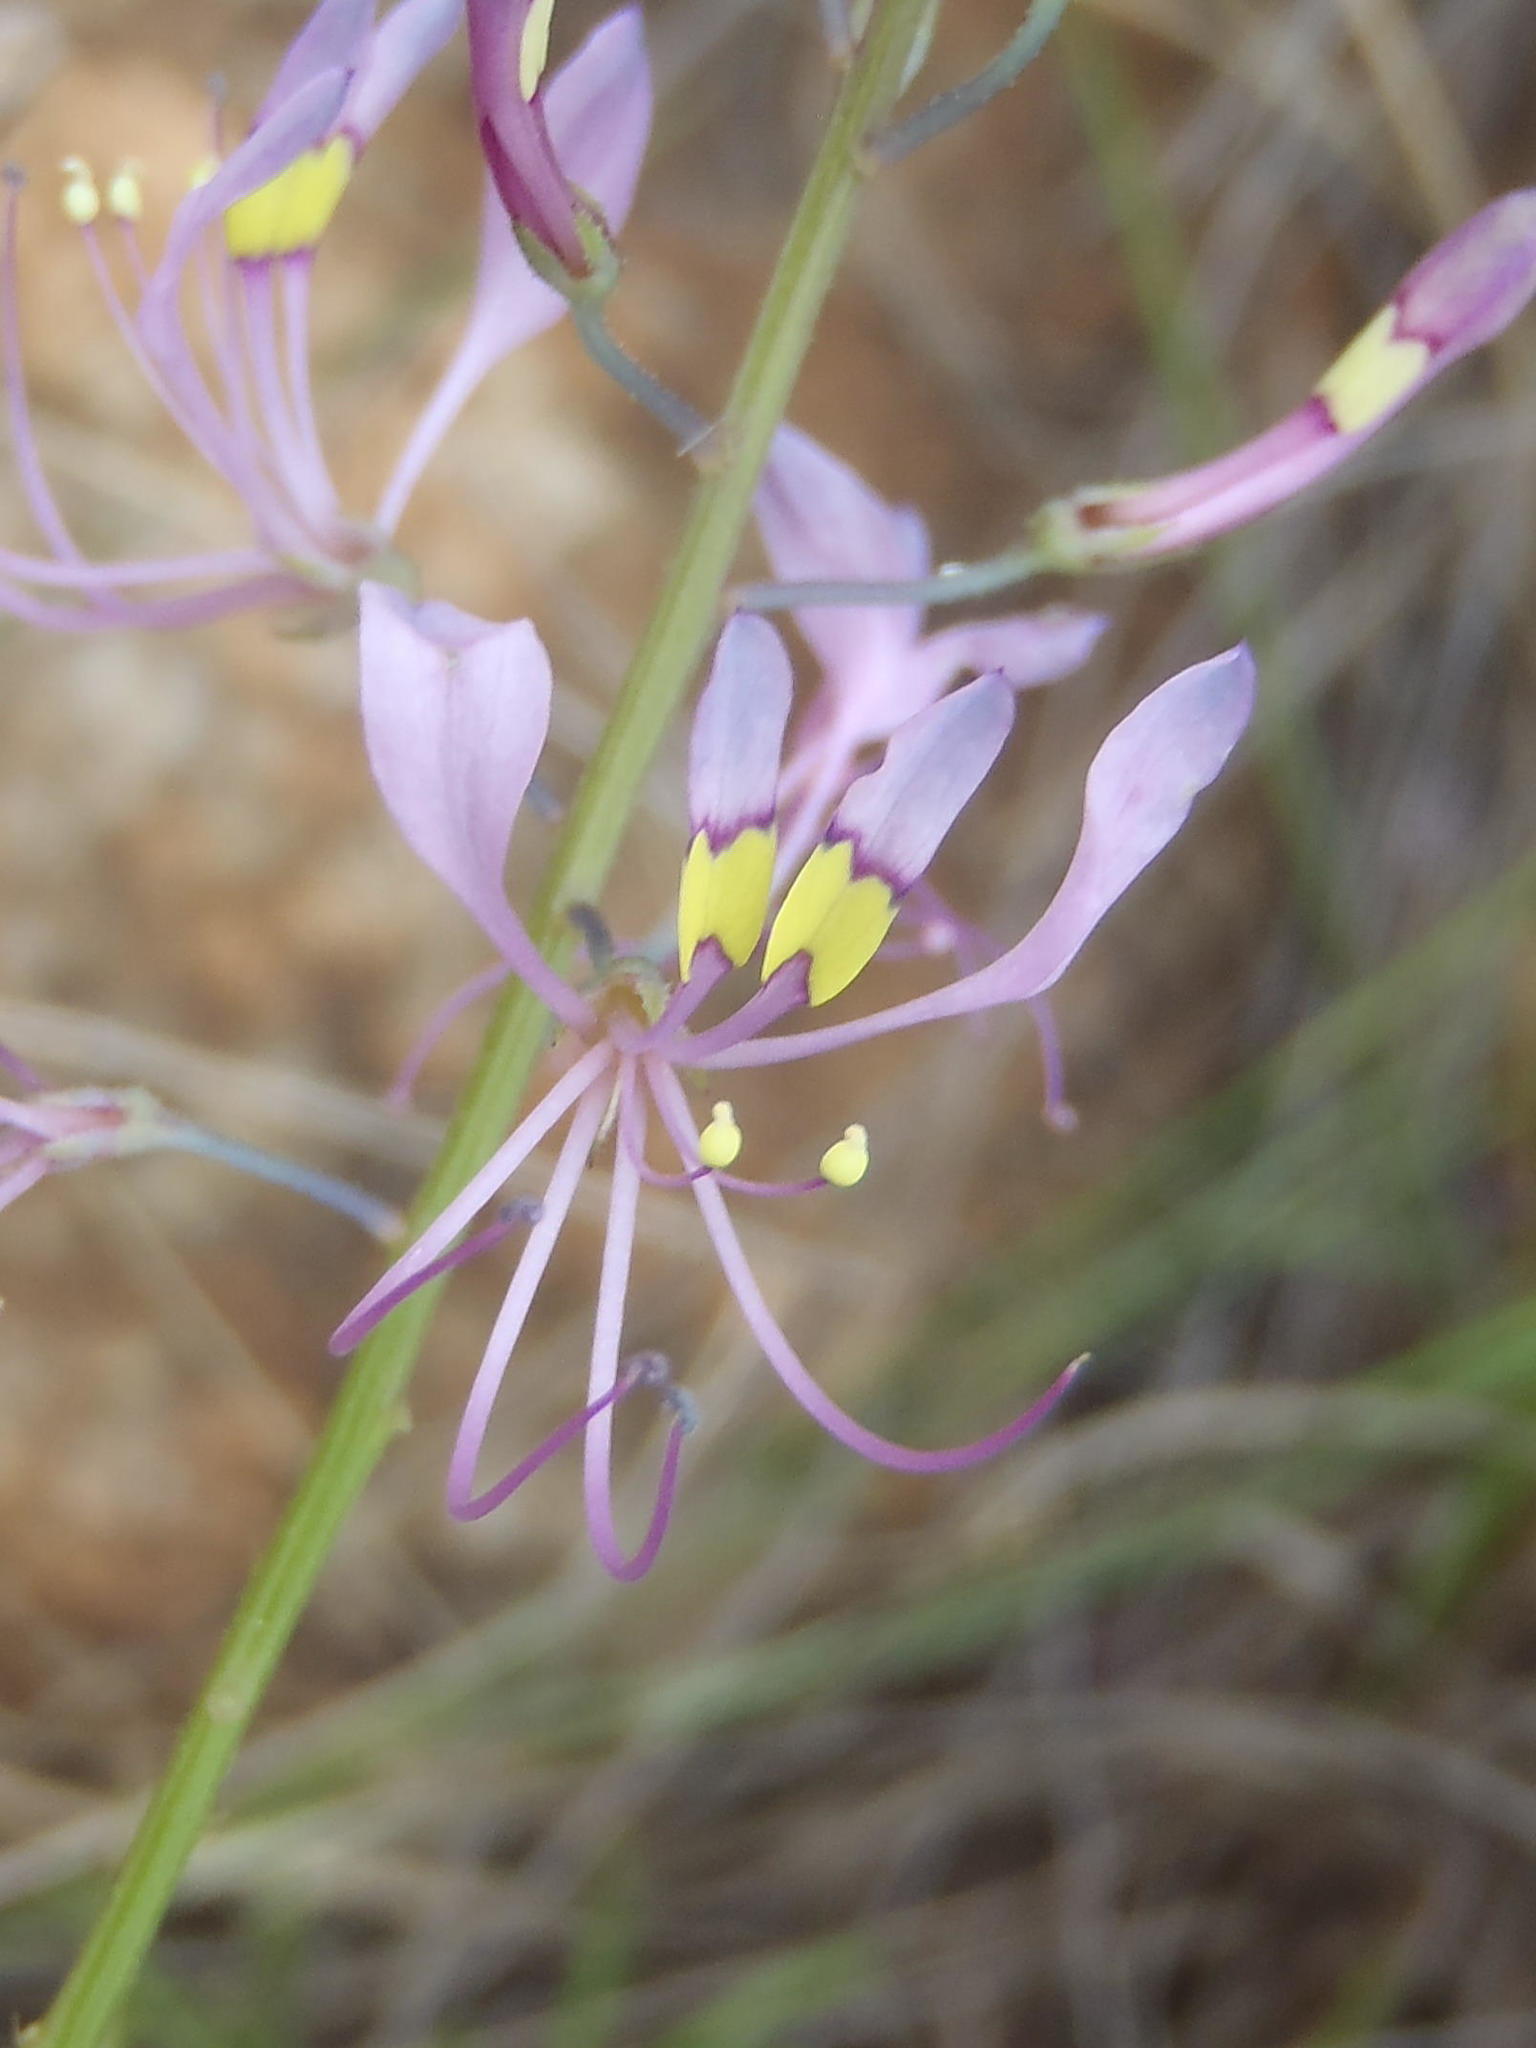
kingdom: Plantae
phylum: Tracheophyta
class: Magnoliopsida
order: Brassicales
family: Cleomaceae
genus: Sieruela
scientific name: Sieruela maculata
